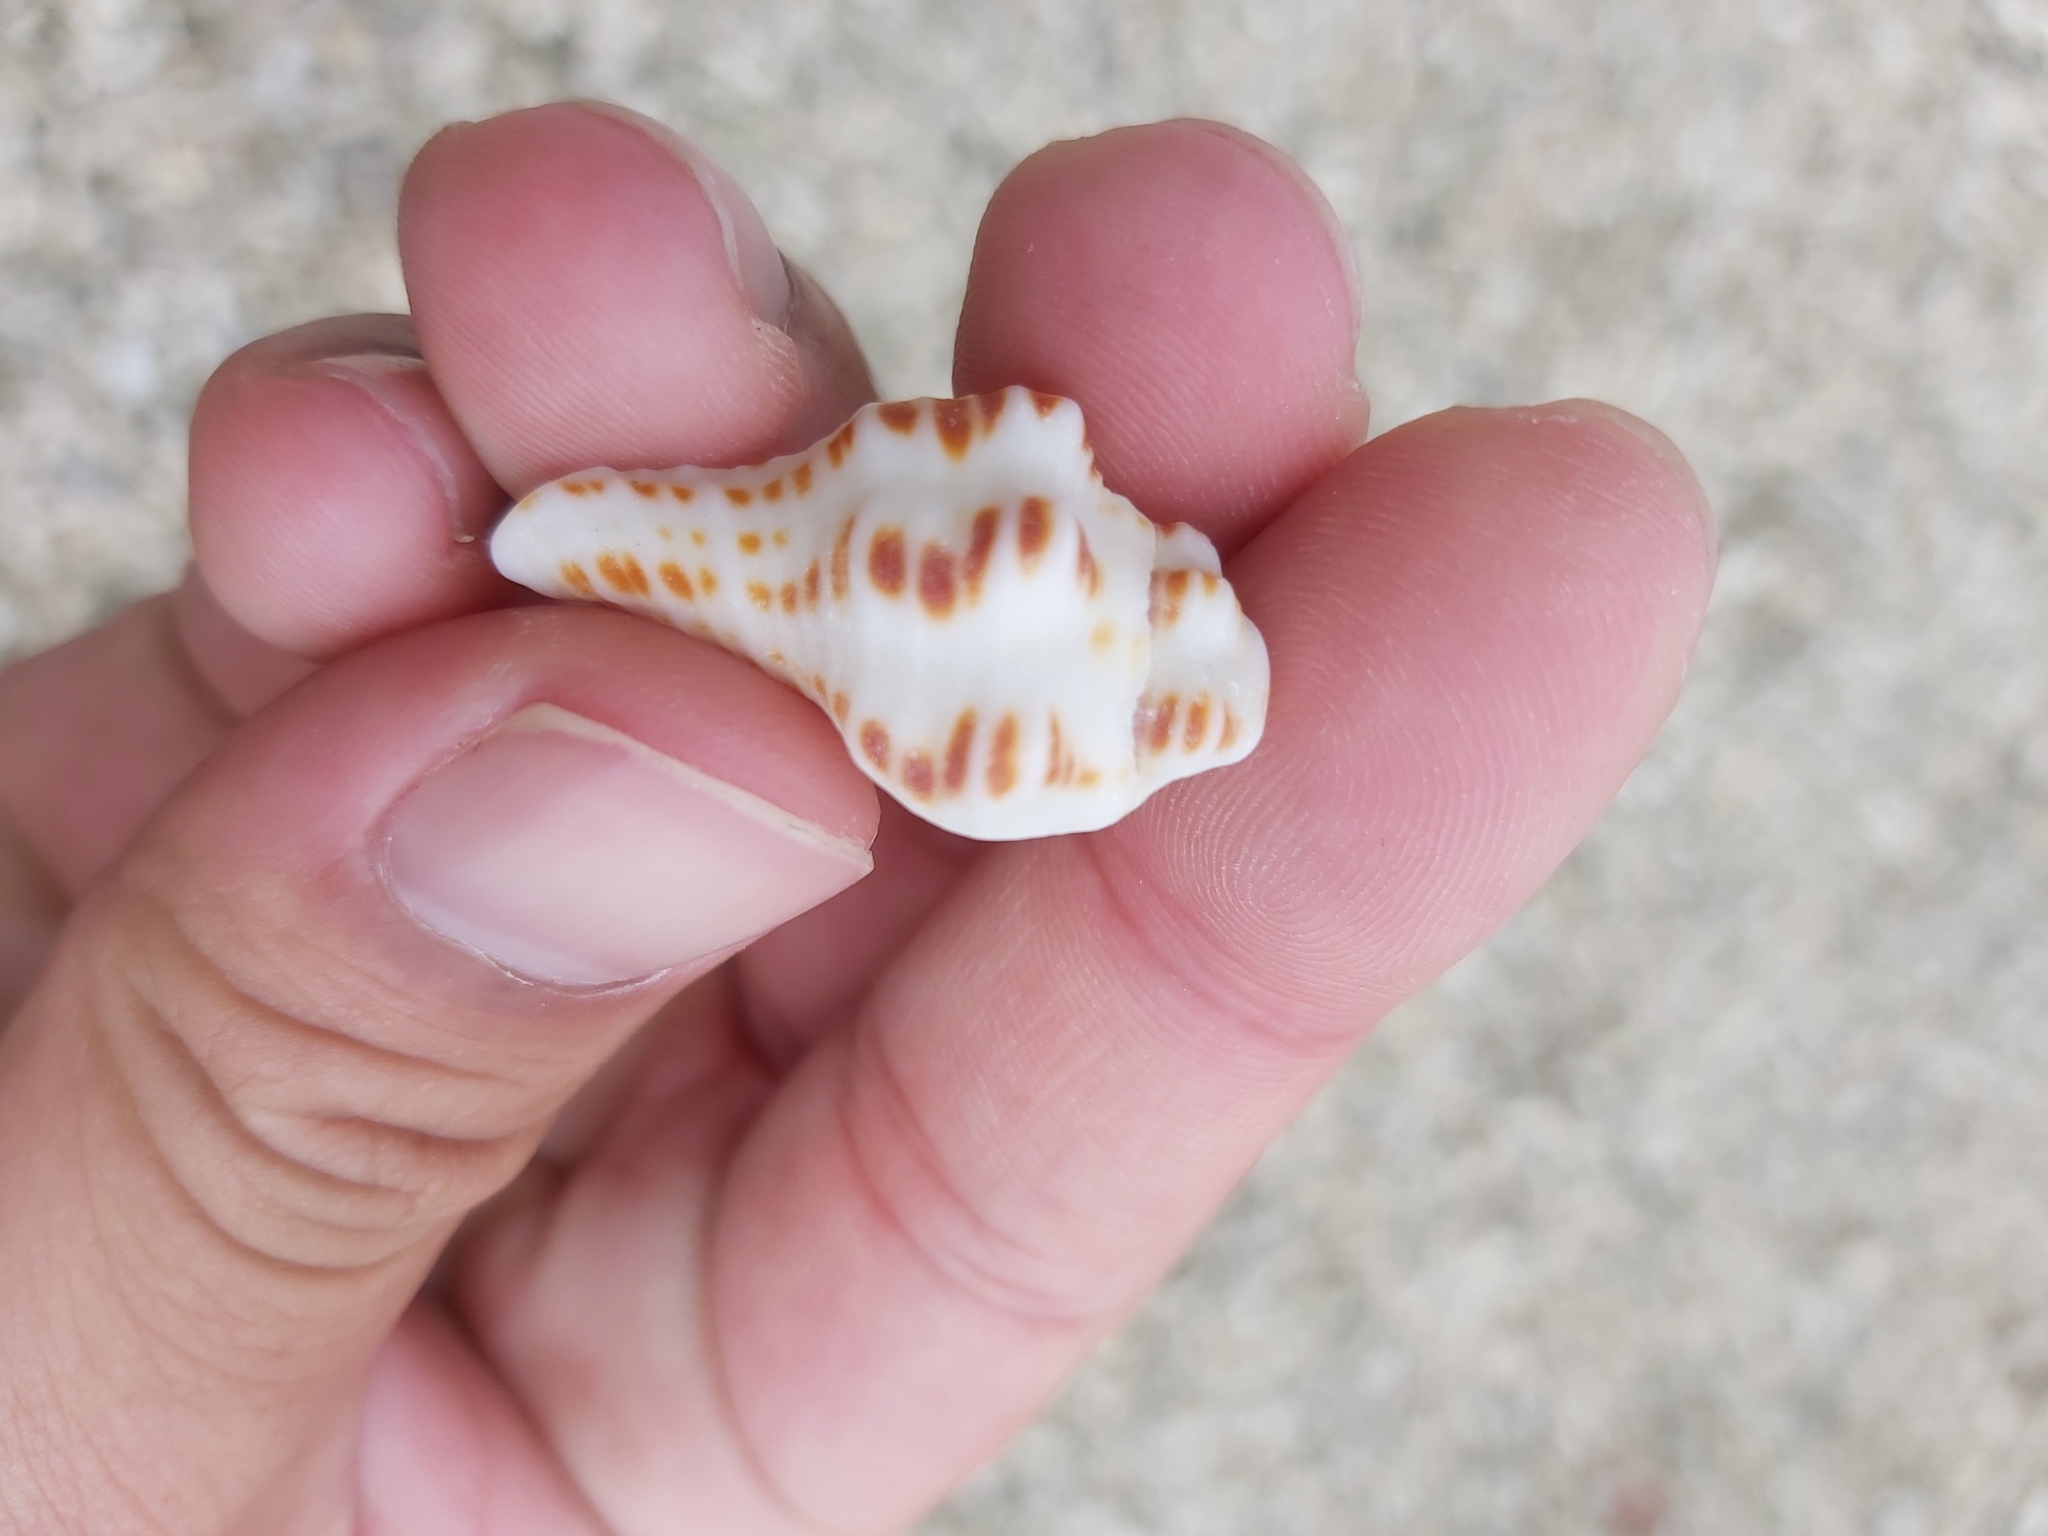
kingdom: Animalia
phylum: Mollusca
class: Gastropoda
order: Neogastropoda
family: Fasciolariidae
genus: Latirus
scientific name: Latirus polygonus
